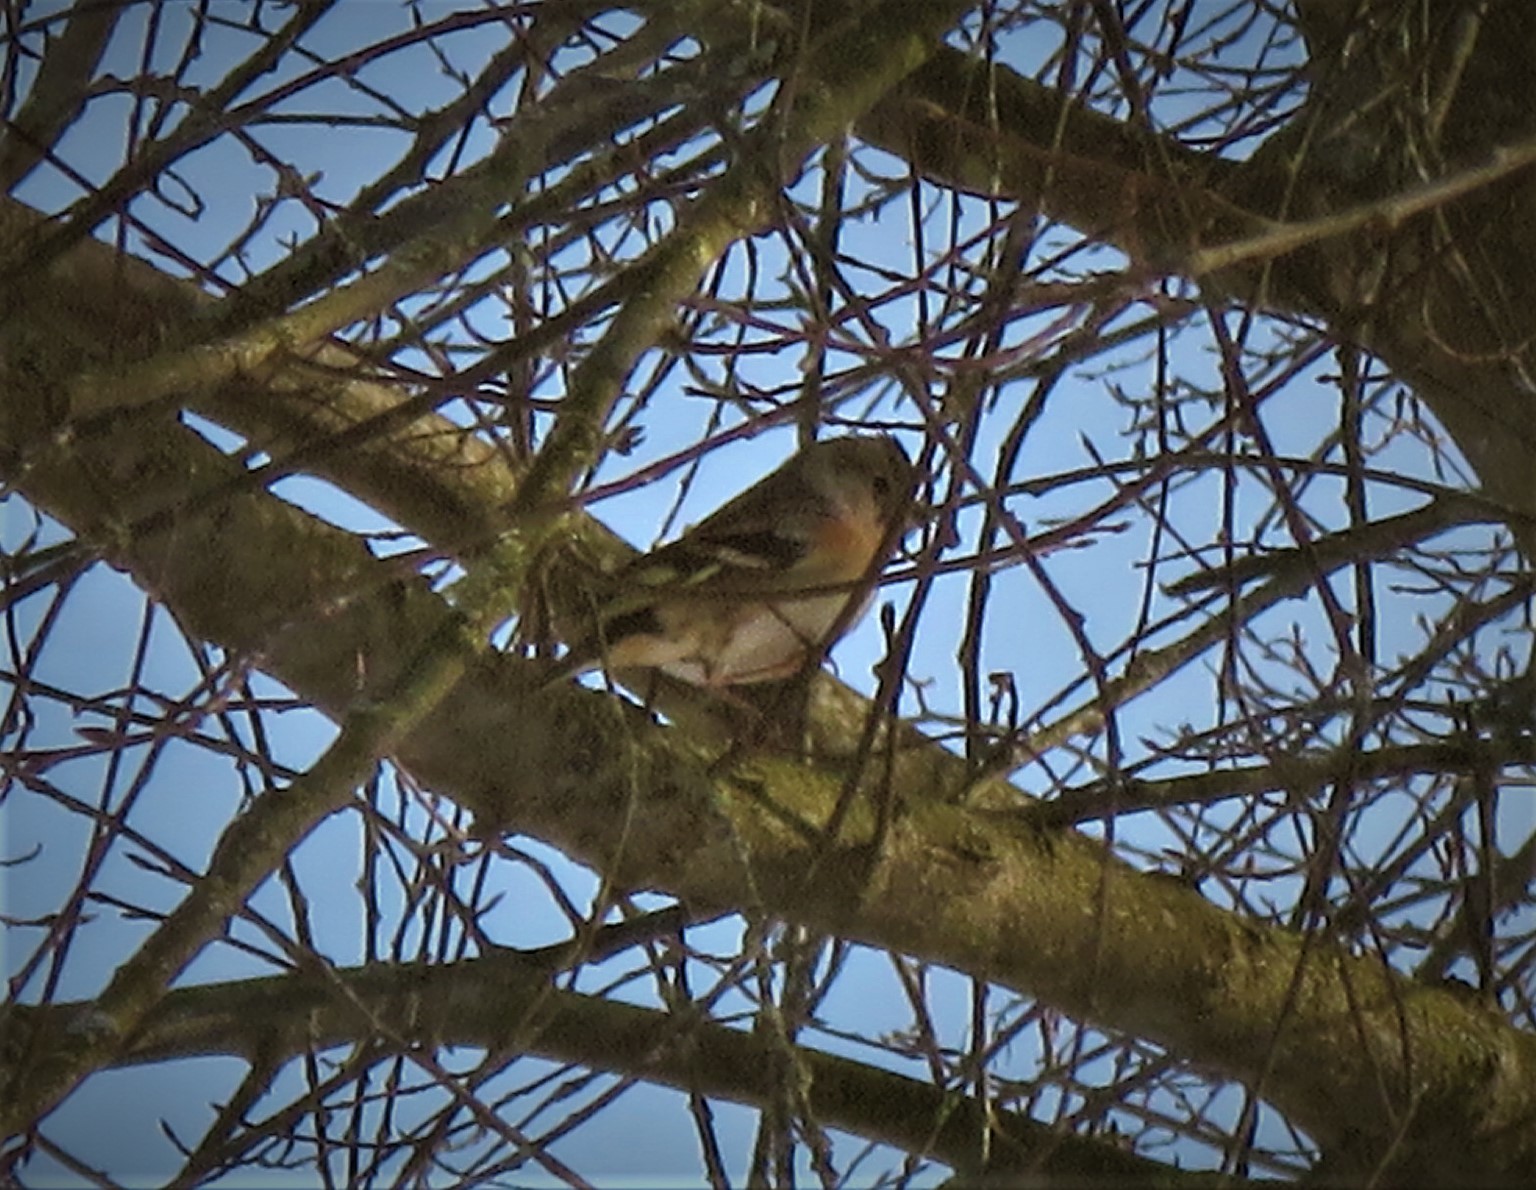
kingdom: Animalia
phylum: Chordata
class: Aves
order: Passeriformes
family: Fringillidae
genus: Fringilla
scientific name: Fringilla montifringilla
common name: Brambling
